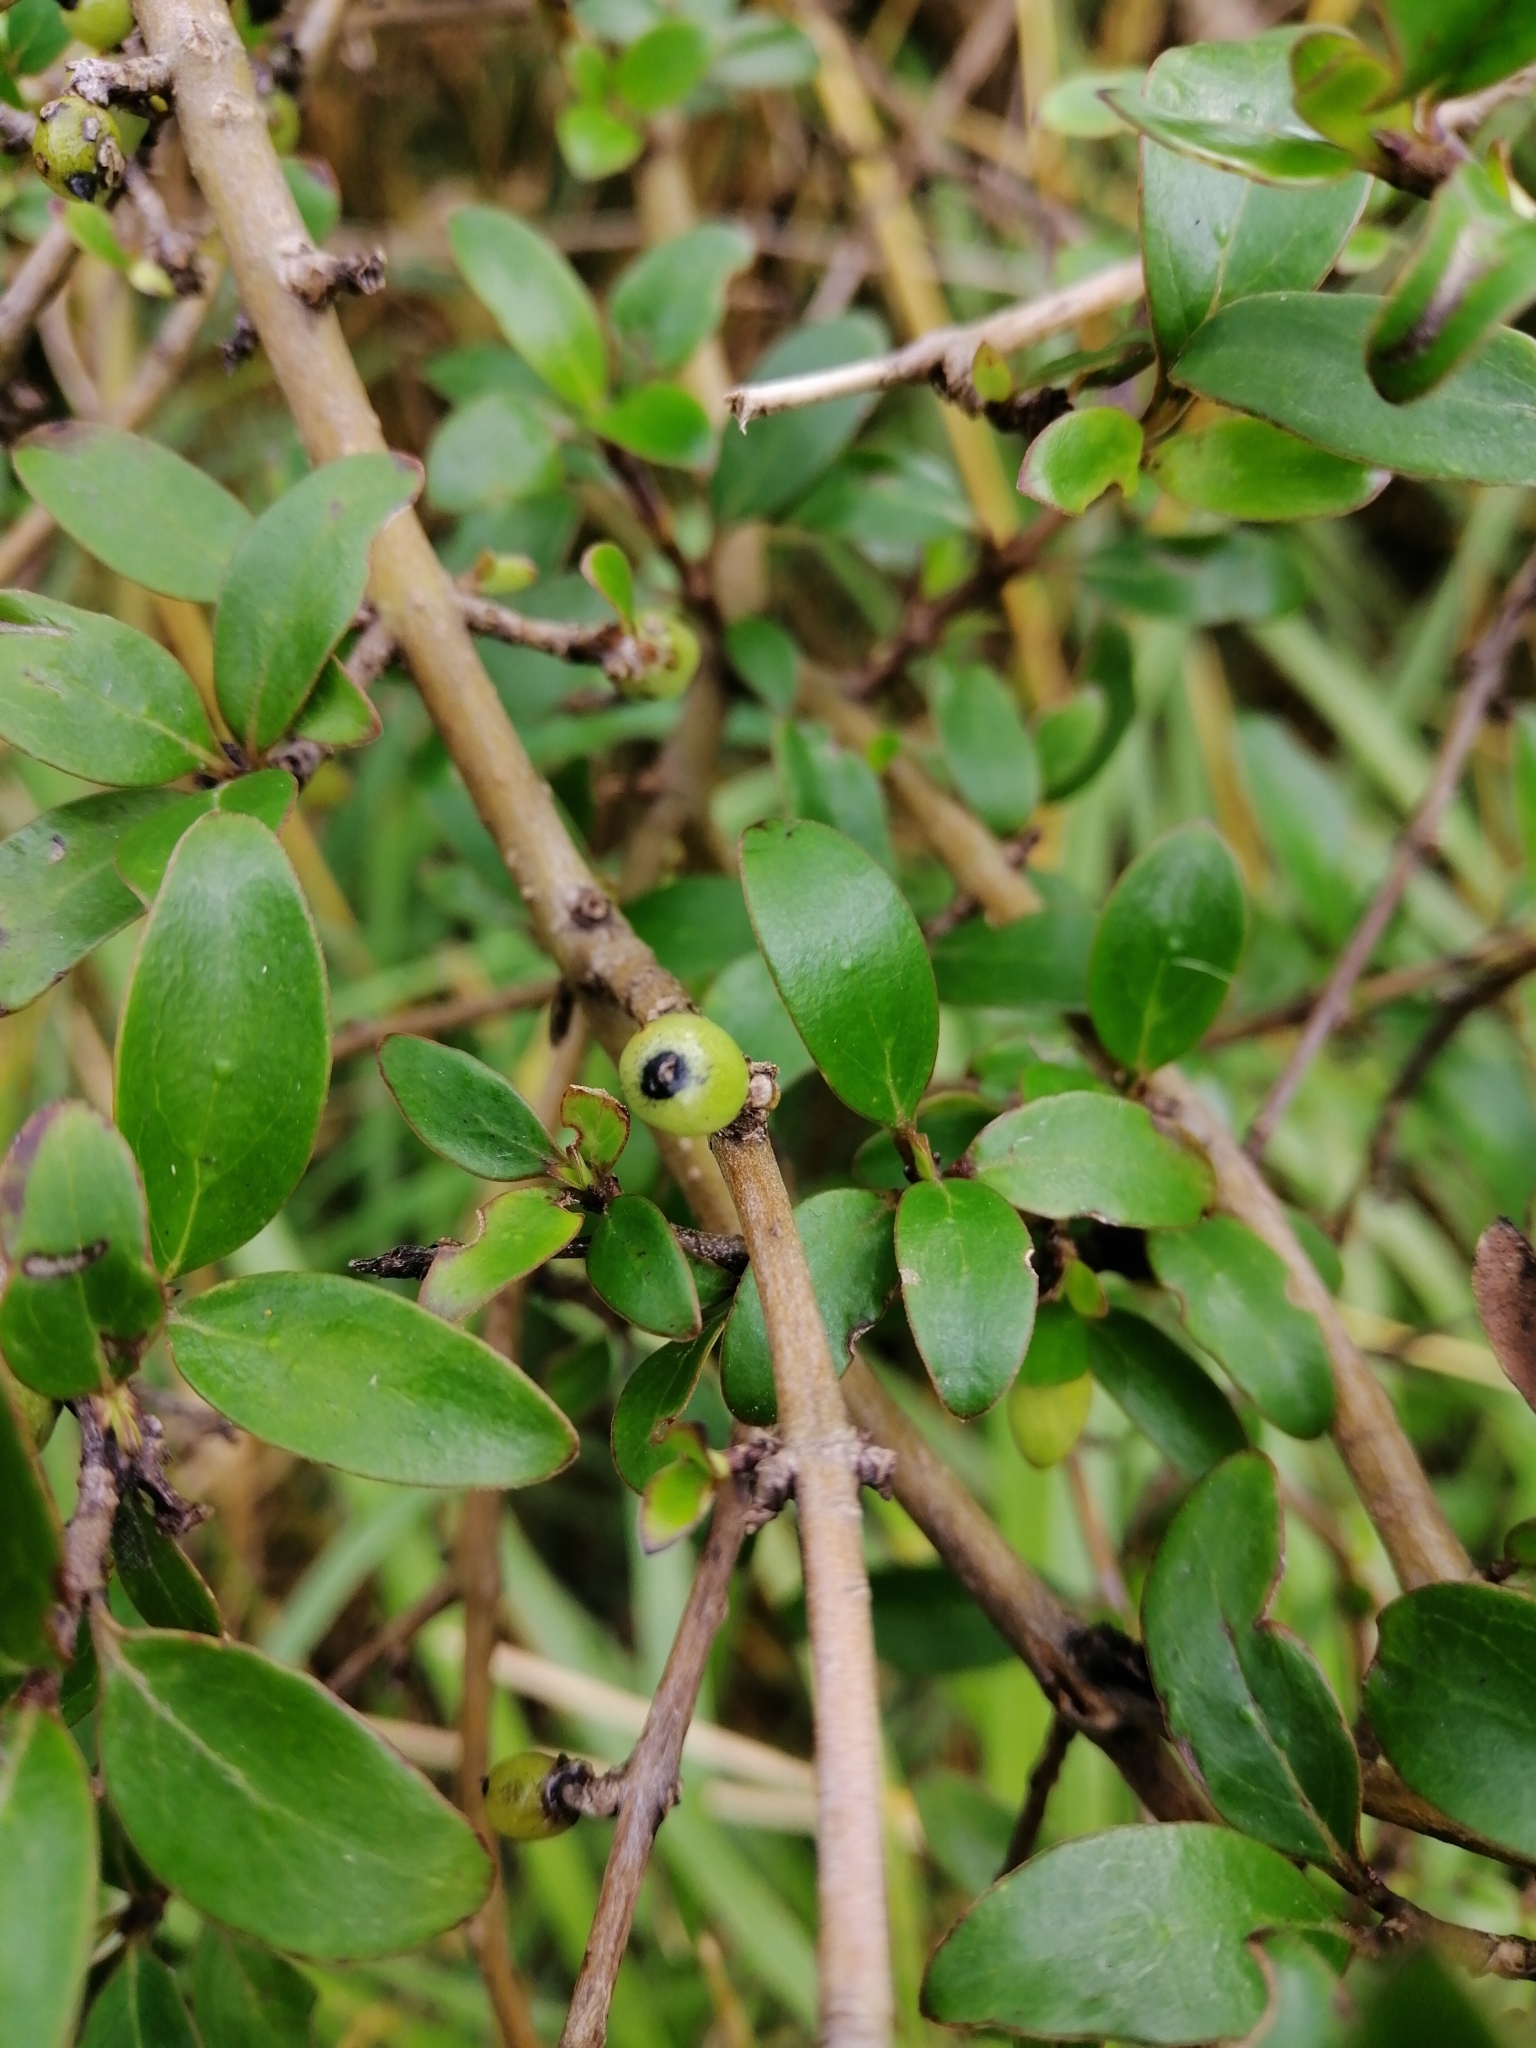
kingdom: Plantae
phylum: Tracheophyta
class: Magnoliopsida
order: Gentianales
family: Rubiaceae
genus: Coprosma
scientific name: Coprosma cunninghamii
